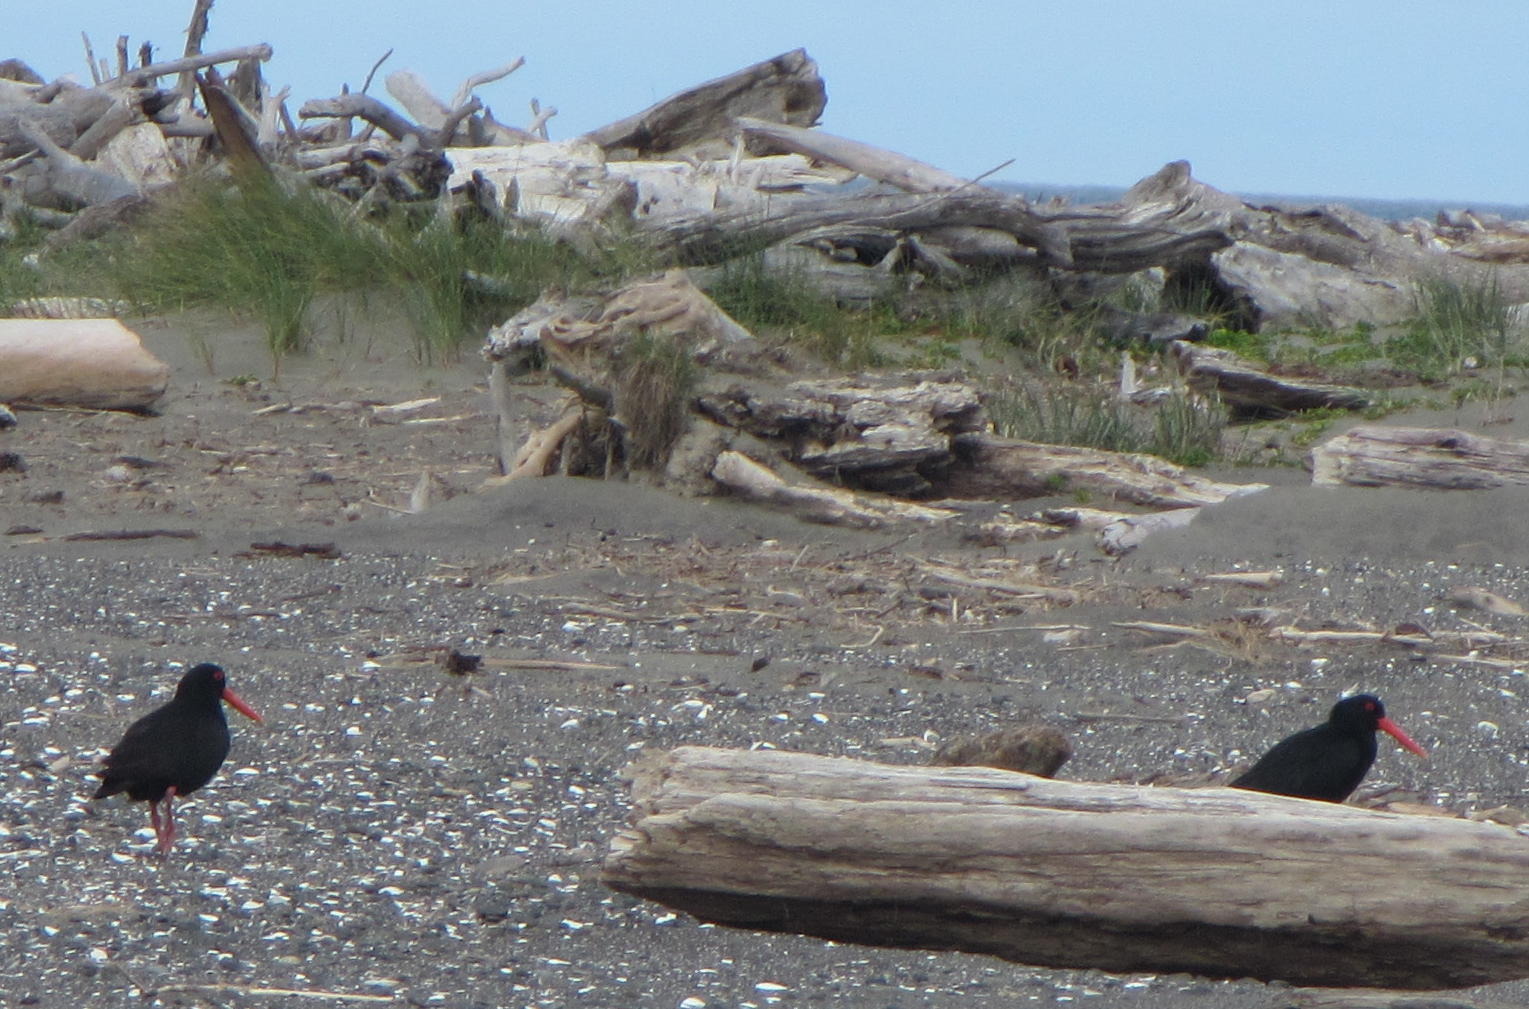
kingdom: Animalia
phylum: Chordata
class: Aves
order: Charadriiformes
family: Haematopodidae
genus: Haematopus
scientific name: Haematopus unicolor
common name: Variable oystercatcher
